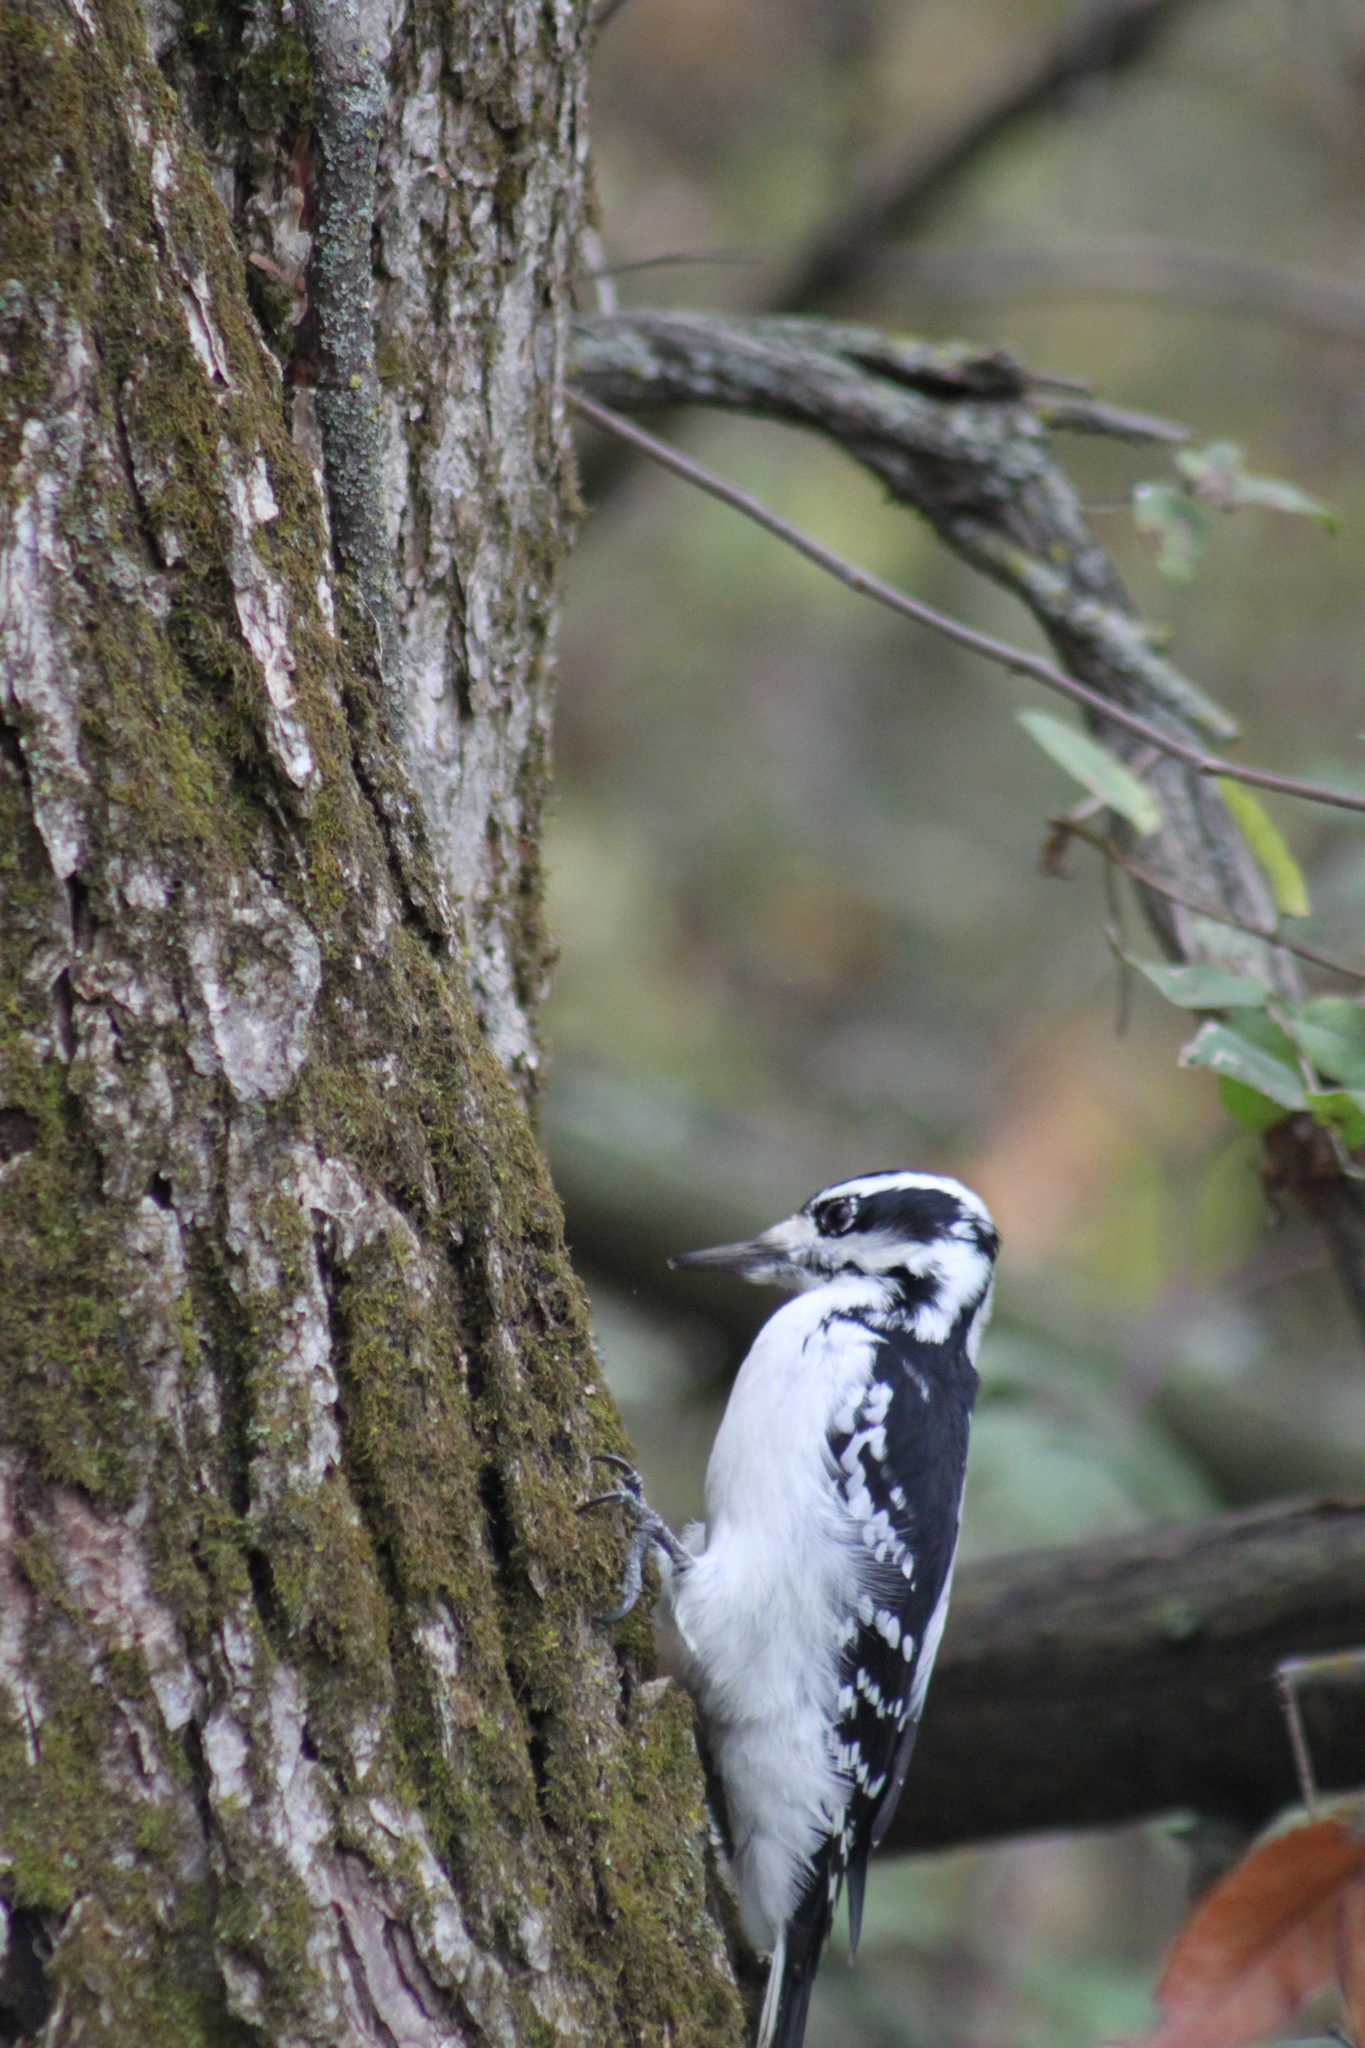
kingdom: Animalia
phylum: Chordata
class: Aves
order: Piciformes
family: Picidae
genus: Leuconotopicus
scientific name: Leuconotopicus villosus
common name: Hairy woodpecker
